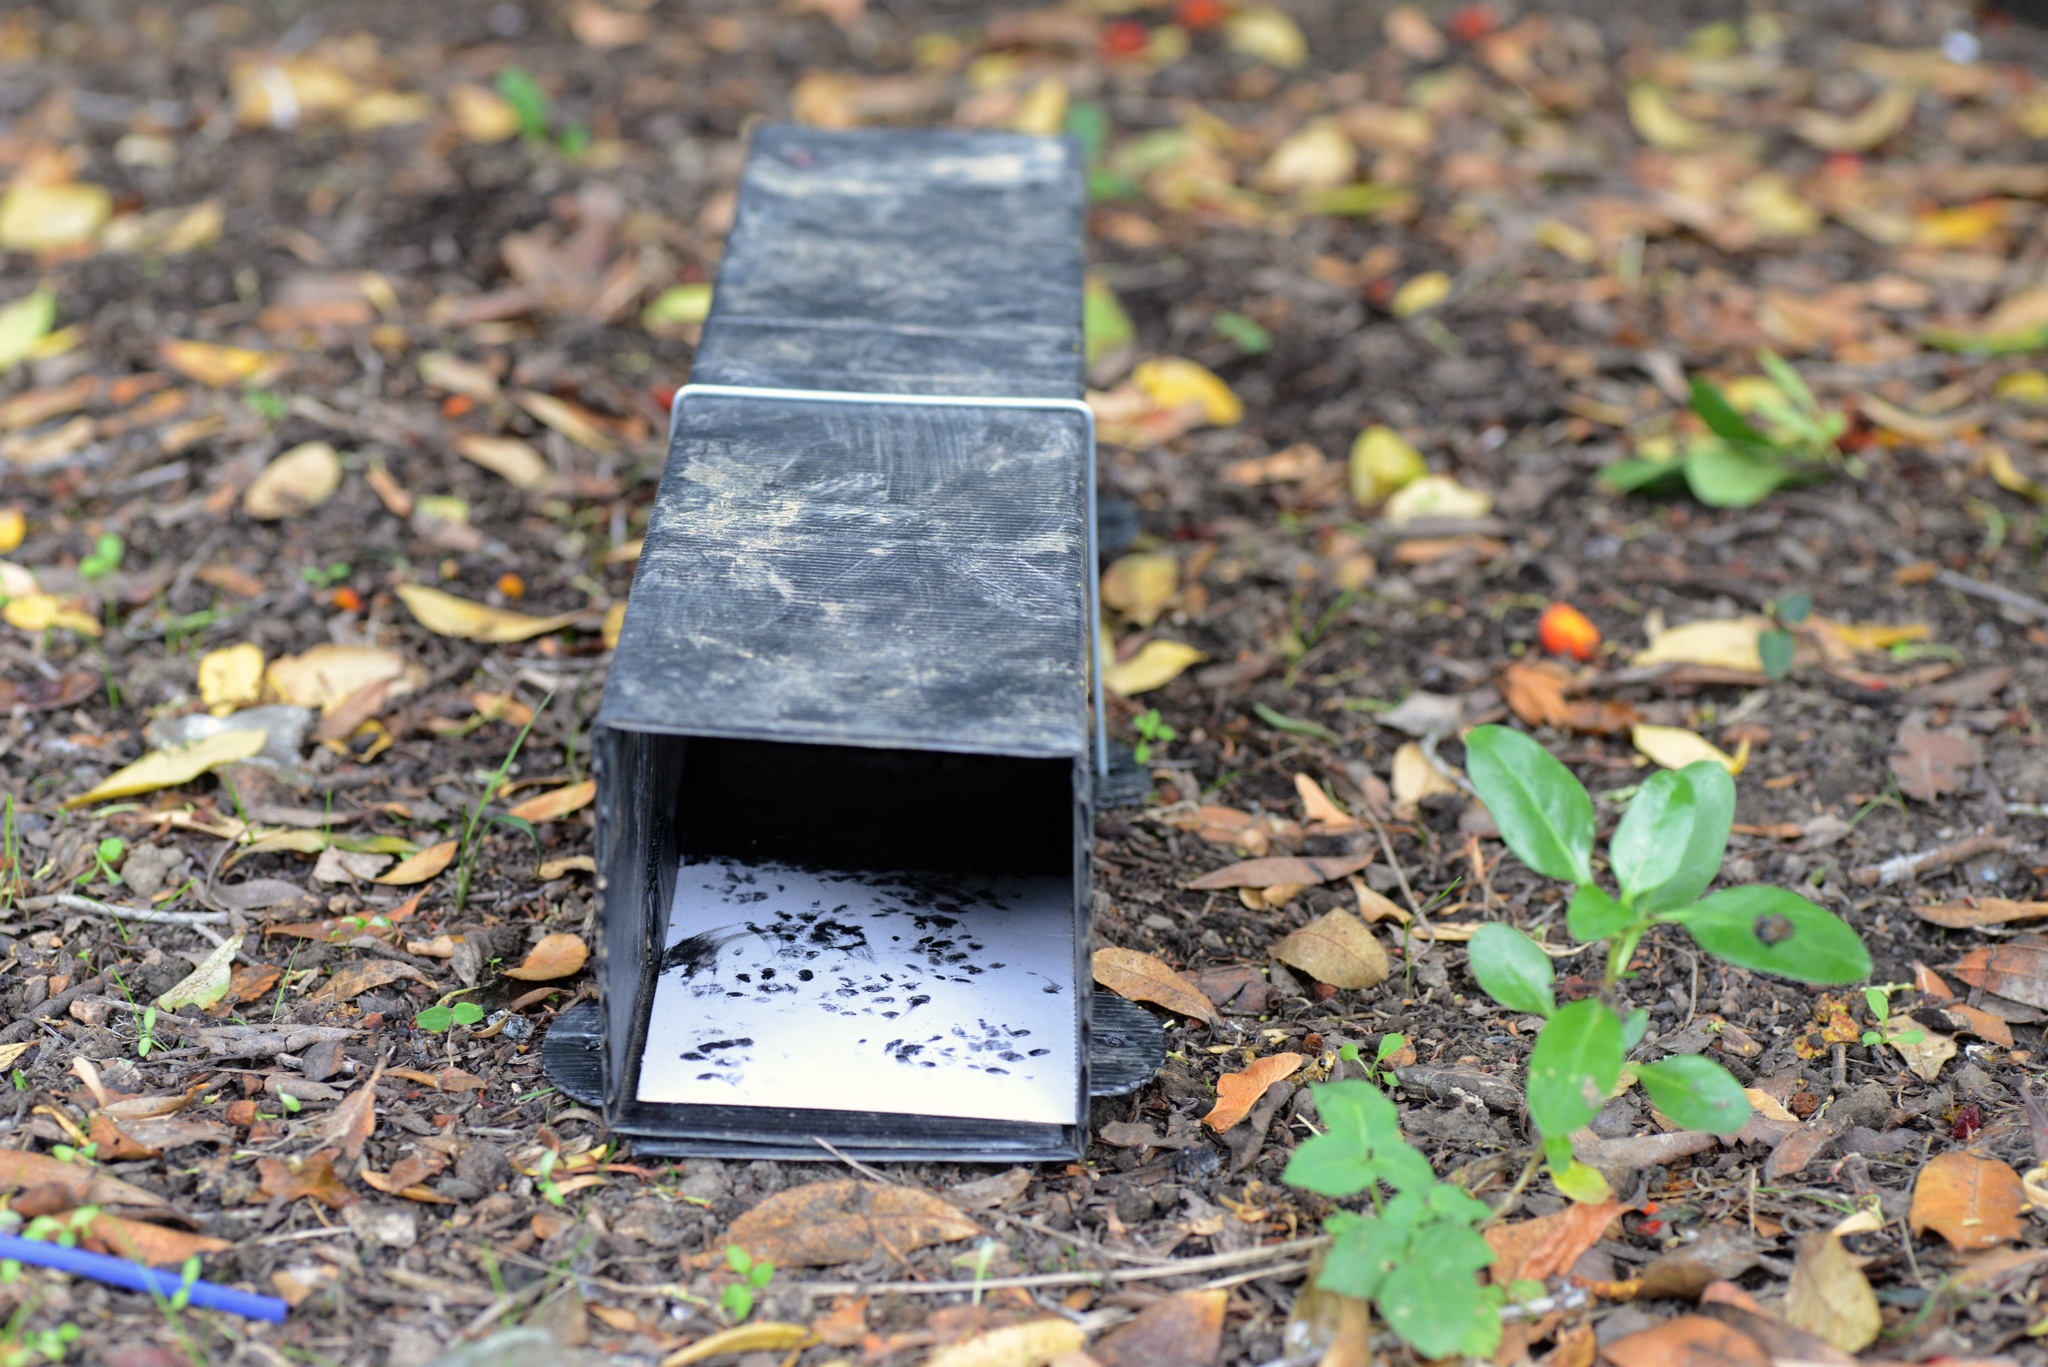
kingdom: Animalia
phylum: Chordata
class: Mammalia
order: Erinaceomorpha
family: Erinaceidae
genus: Erinaceus
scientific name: Erinaceus europaeus
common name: West european hedgehog
